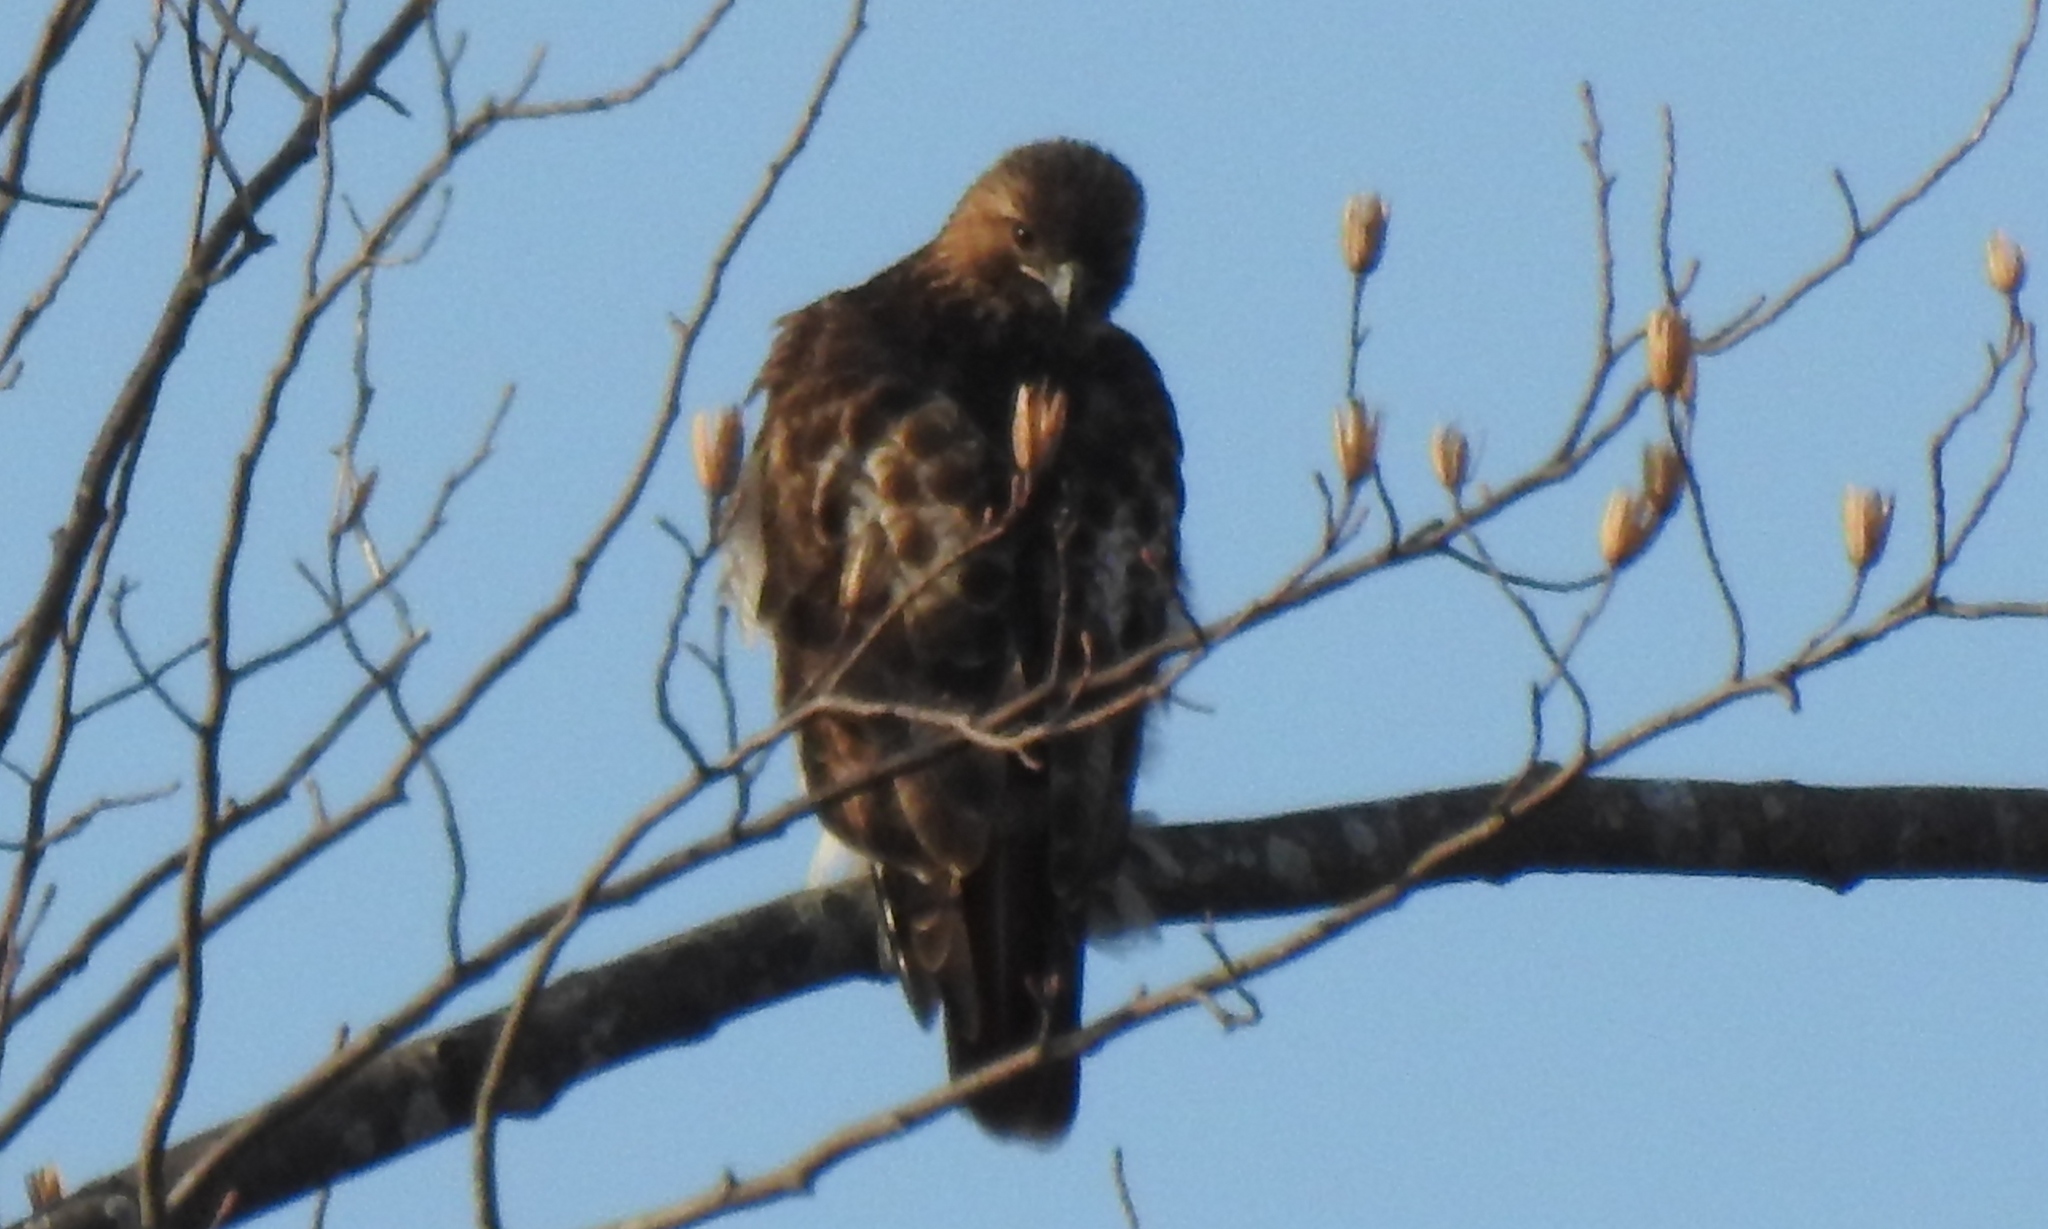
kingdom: Animalia
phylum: Chordata
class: Aves
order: Accipitriformes
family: Accipitridae
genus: Buteo
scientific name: Buteo jamaicensis
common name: Red-tailed hawk
